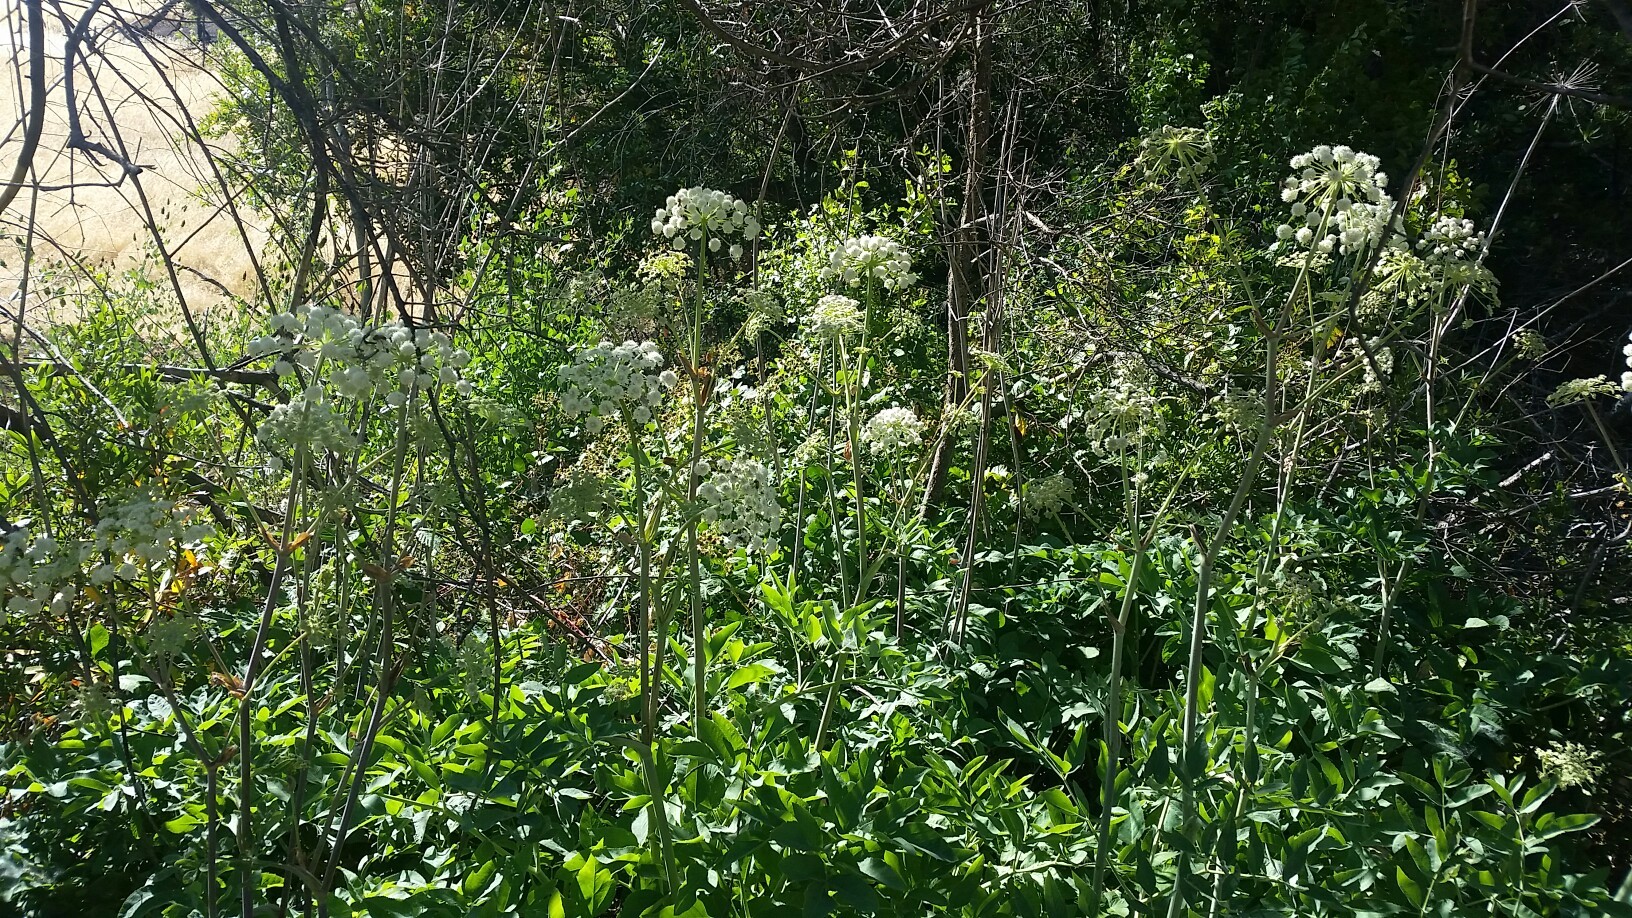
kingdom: Plantae
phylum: Tracheophyta
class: Magnoliopsida
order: Apiales
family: Apiaceae
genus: Angelica
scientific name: Angelica tomentosa
